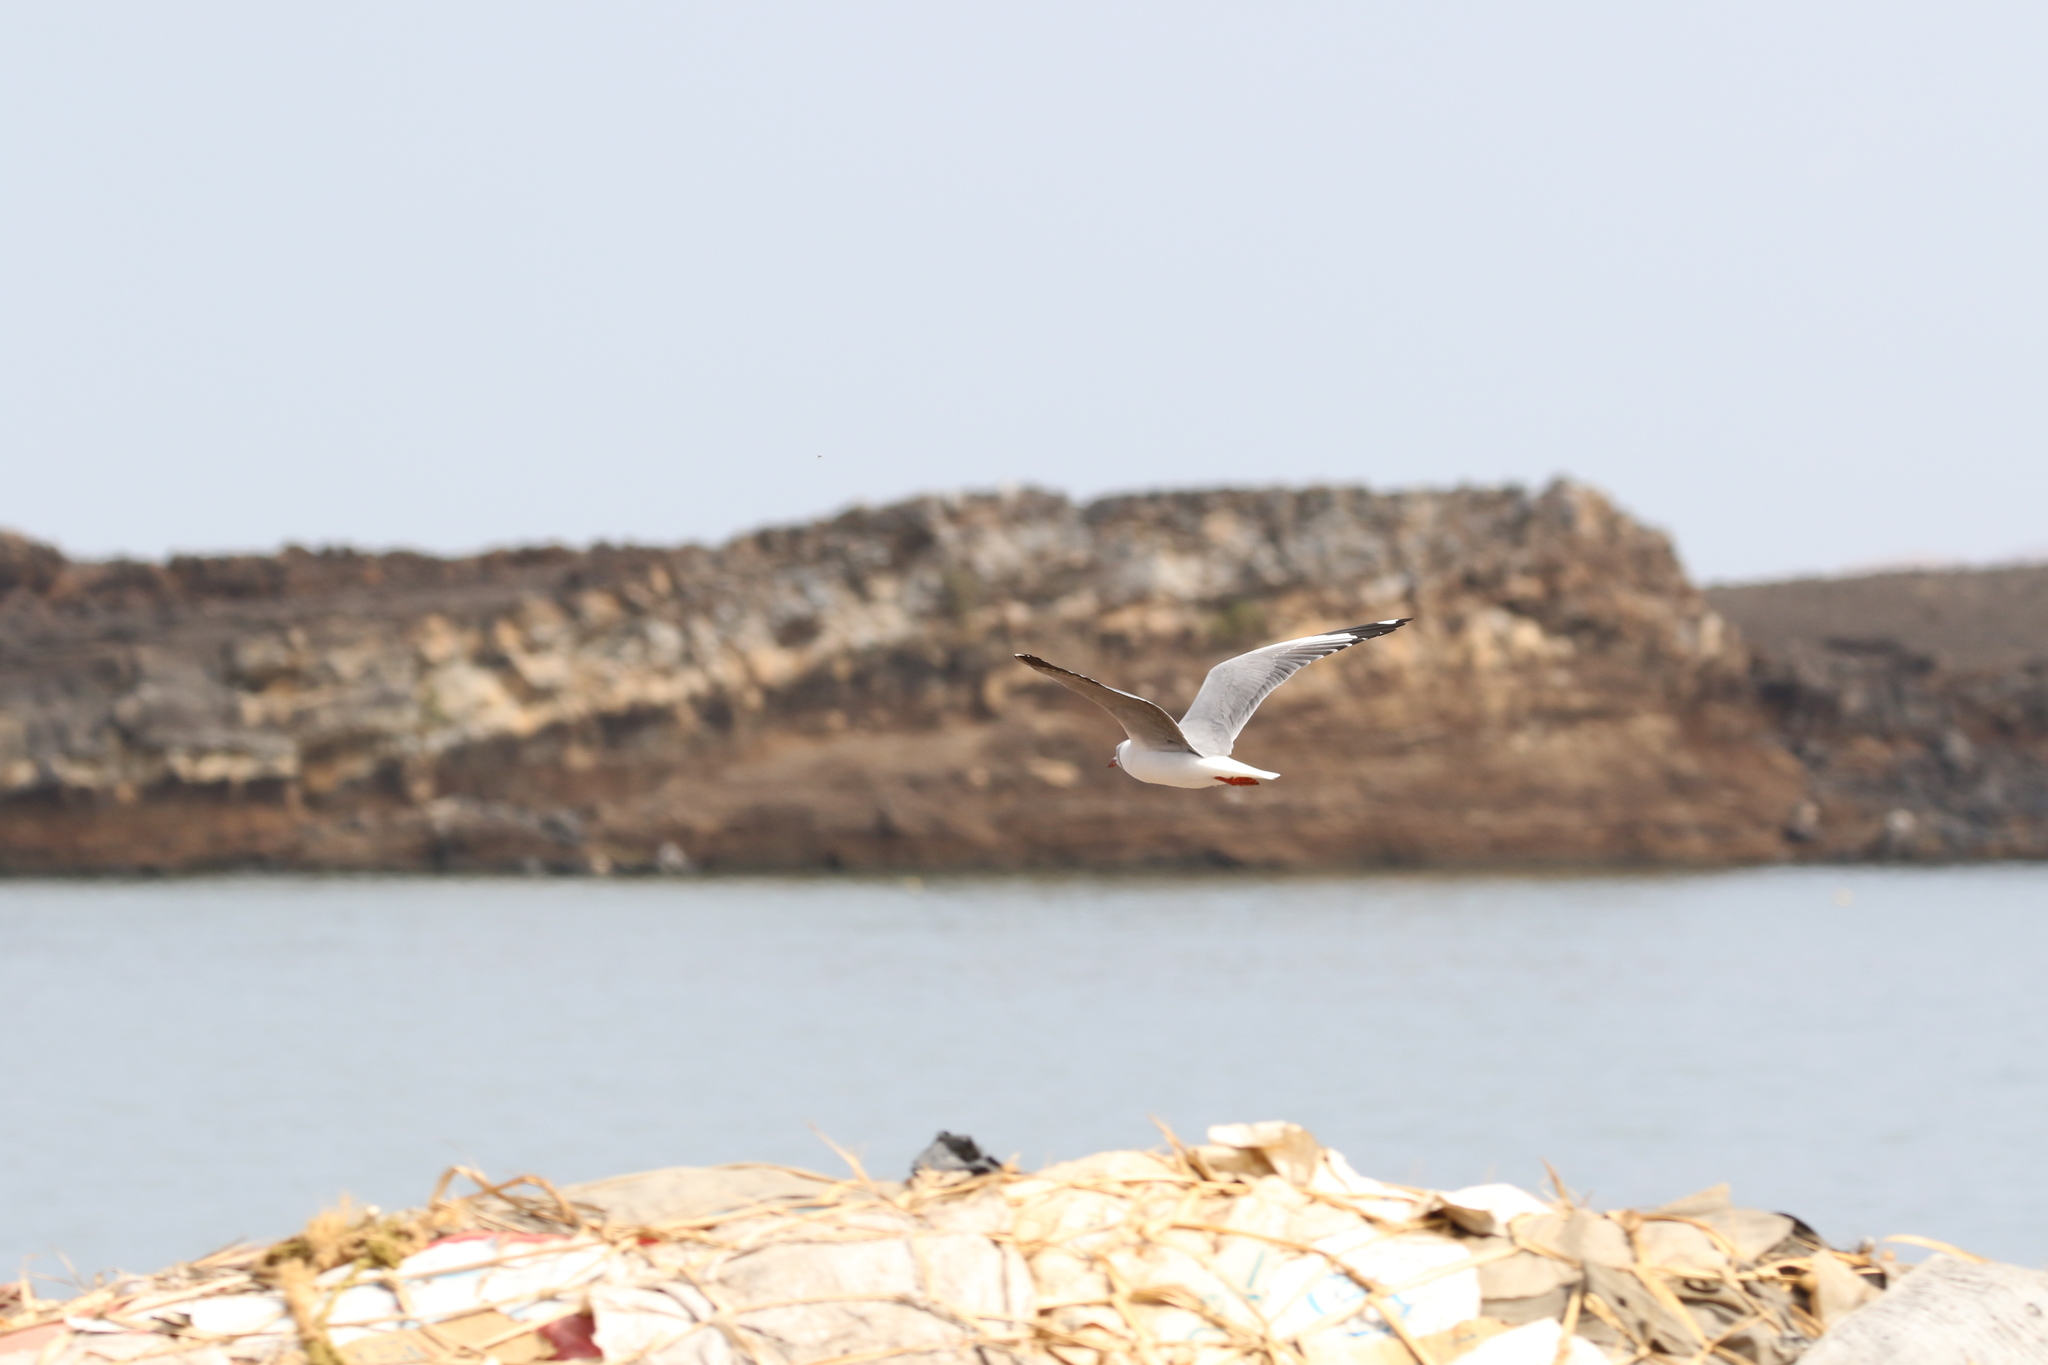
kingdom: Animalia
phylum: Chordata
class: Aves
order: Charadriiformes
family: Laridae
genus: Chroicocephalus
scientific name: Chroicocephalus cirrocephalus
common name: Grey-headed gull
